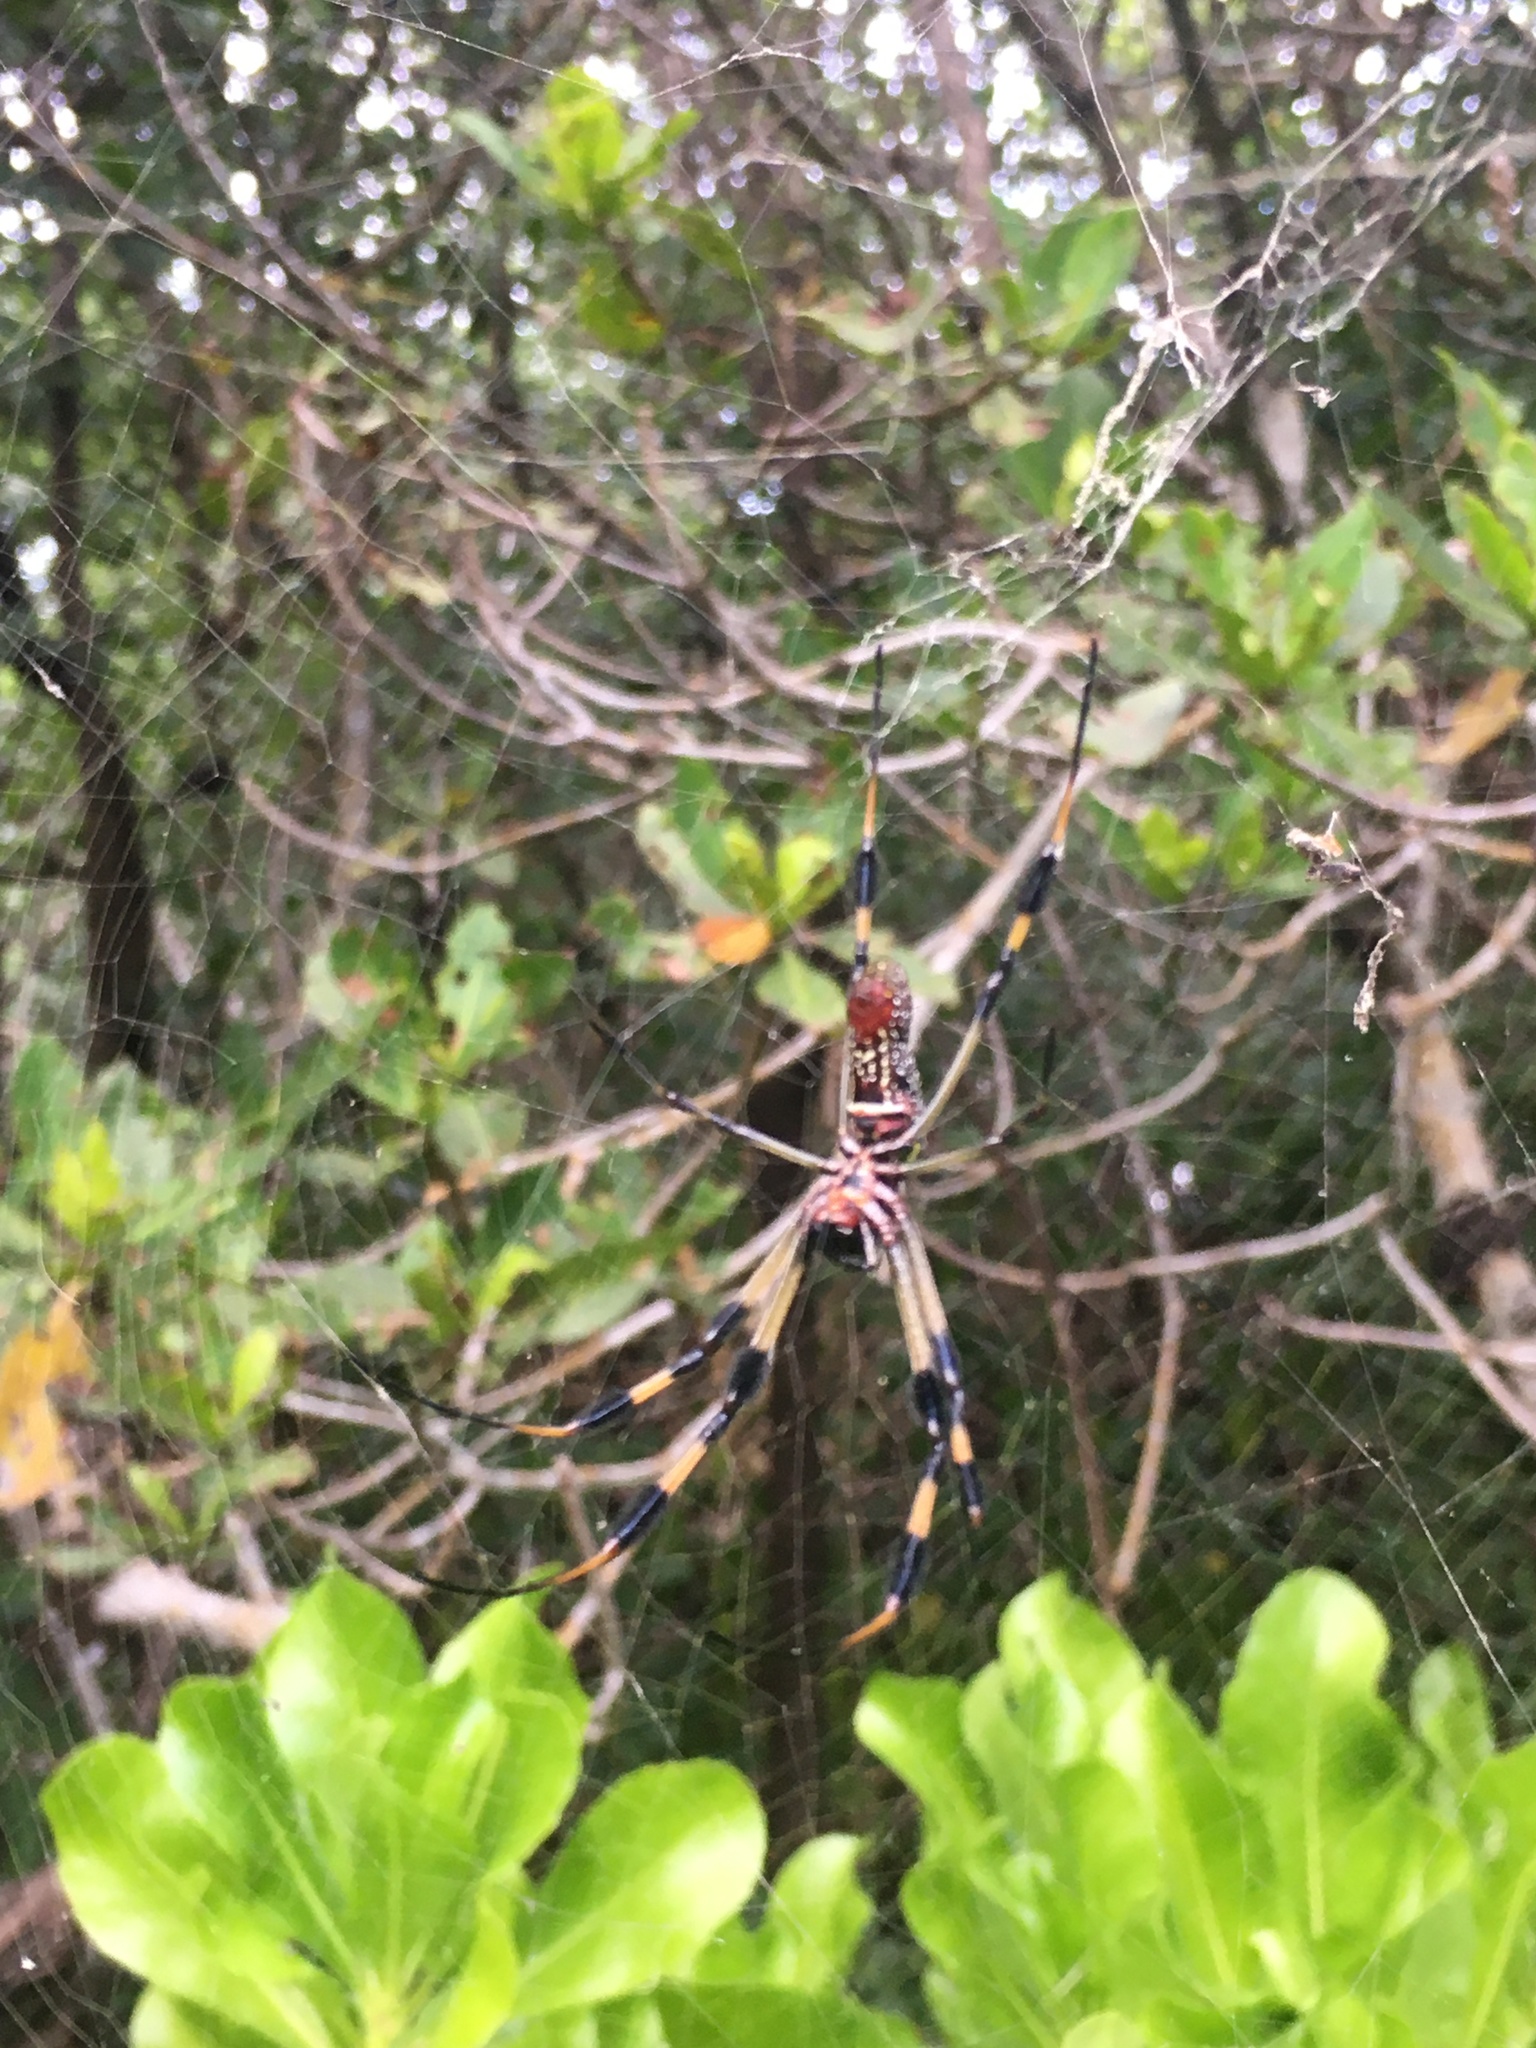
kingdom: Animalia
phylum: Arthropoda
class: Arachnida
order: Araneae
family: Araneidae
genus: Trichonephila
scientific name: Trichonephila clavipes
